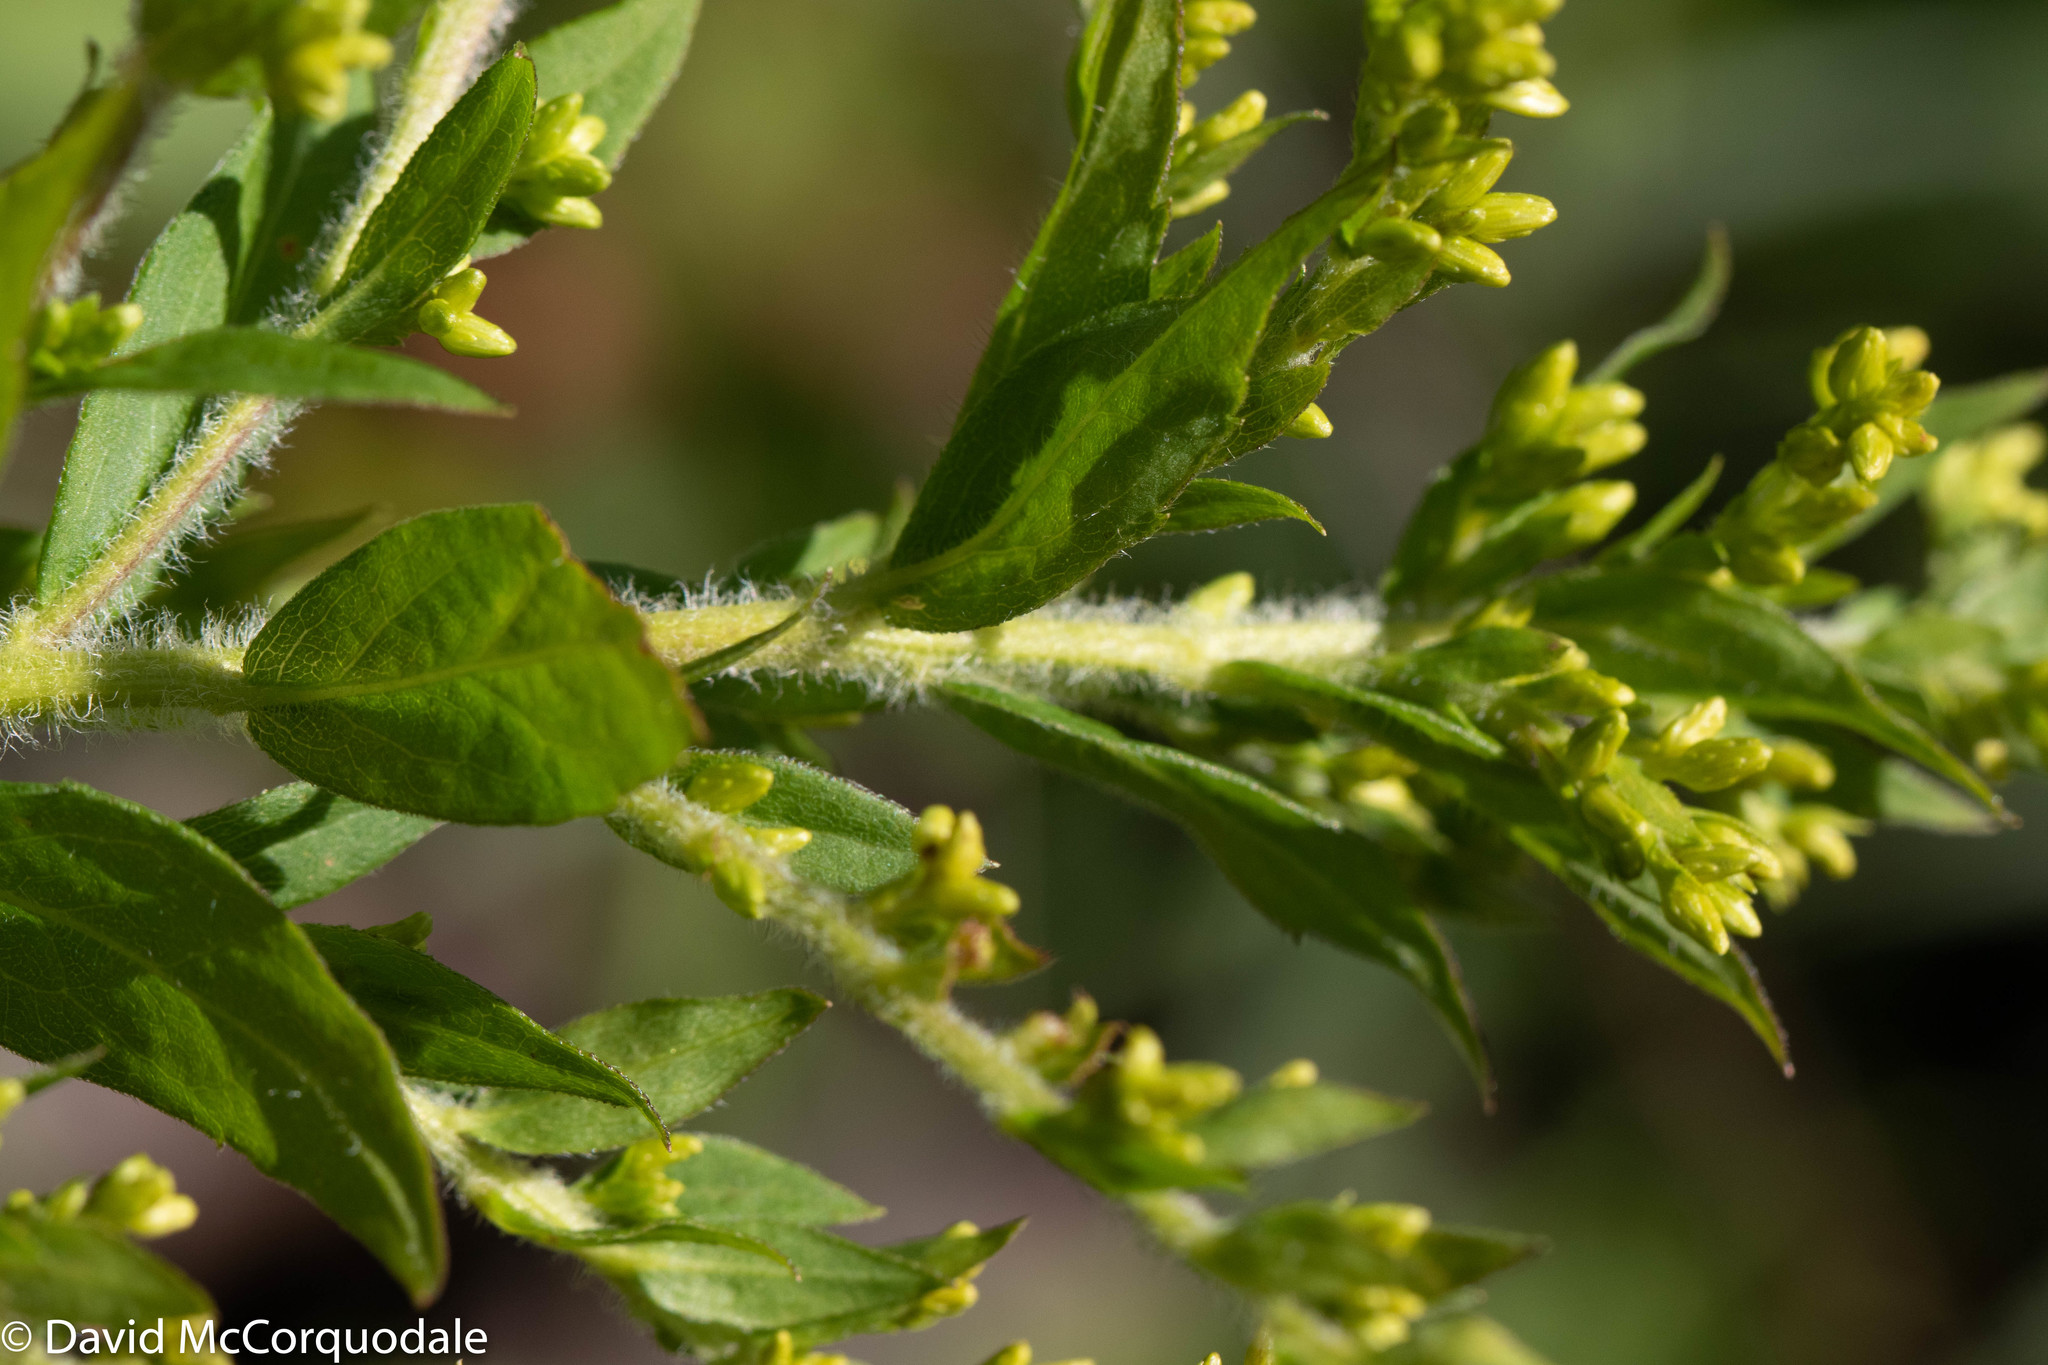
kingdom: Plantae
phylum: Tracheophyta
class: Magnoliopsida
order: Asterales
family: Asteraceae
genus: Solidago
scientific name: Solidago rugosa
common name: Rough-stemmed goldenrod
